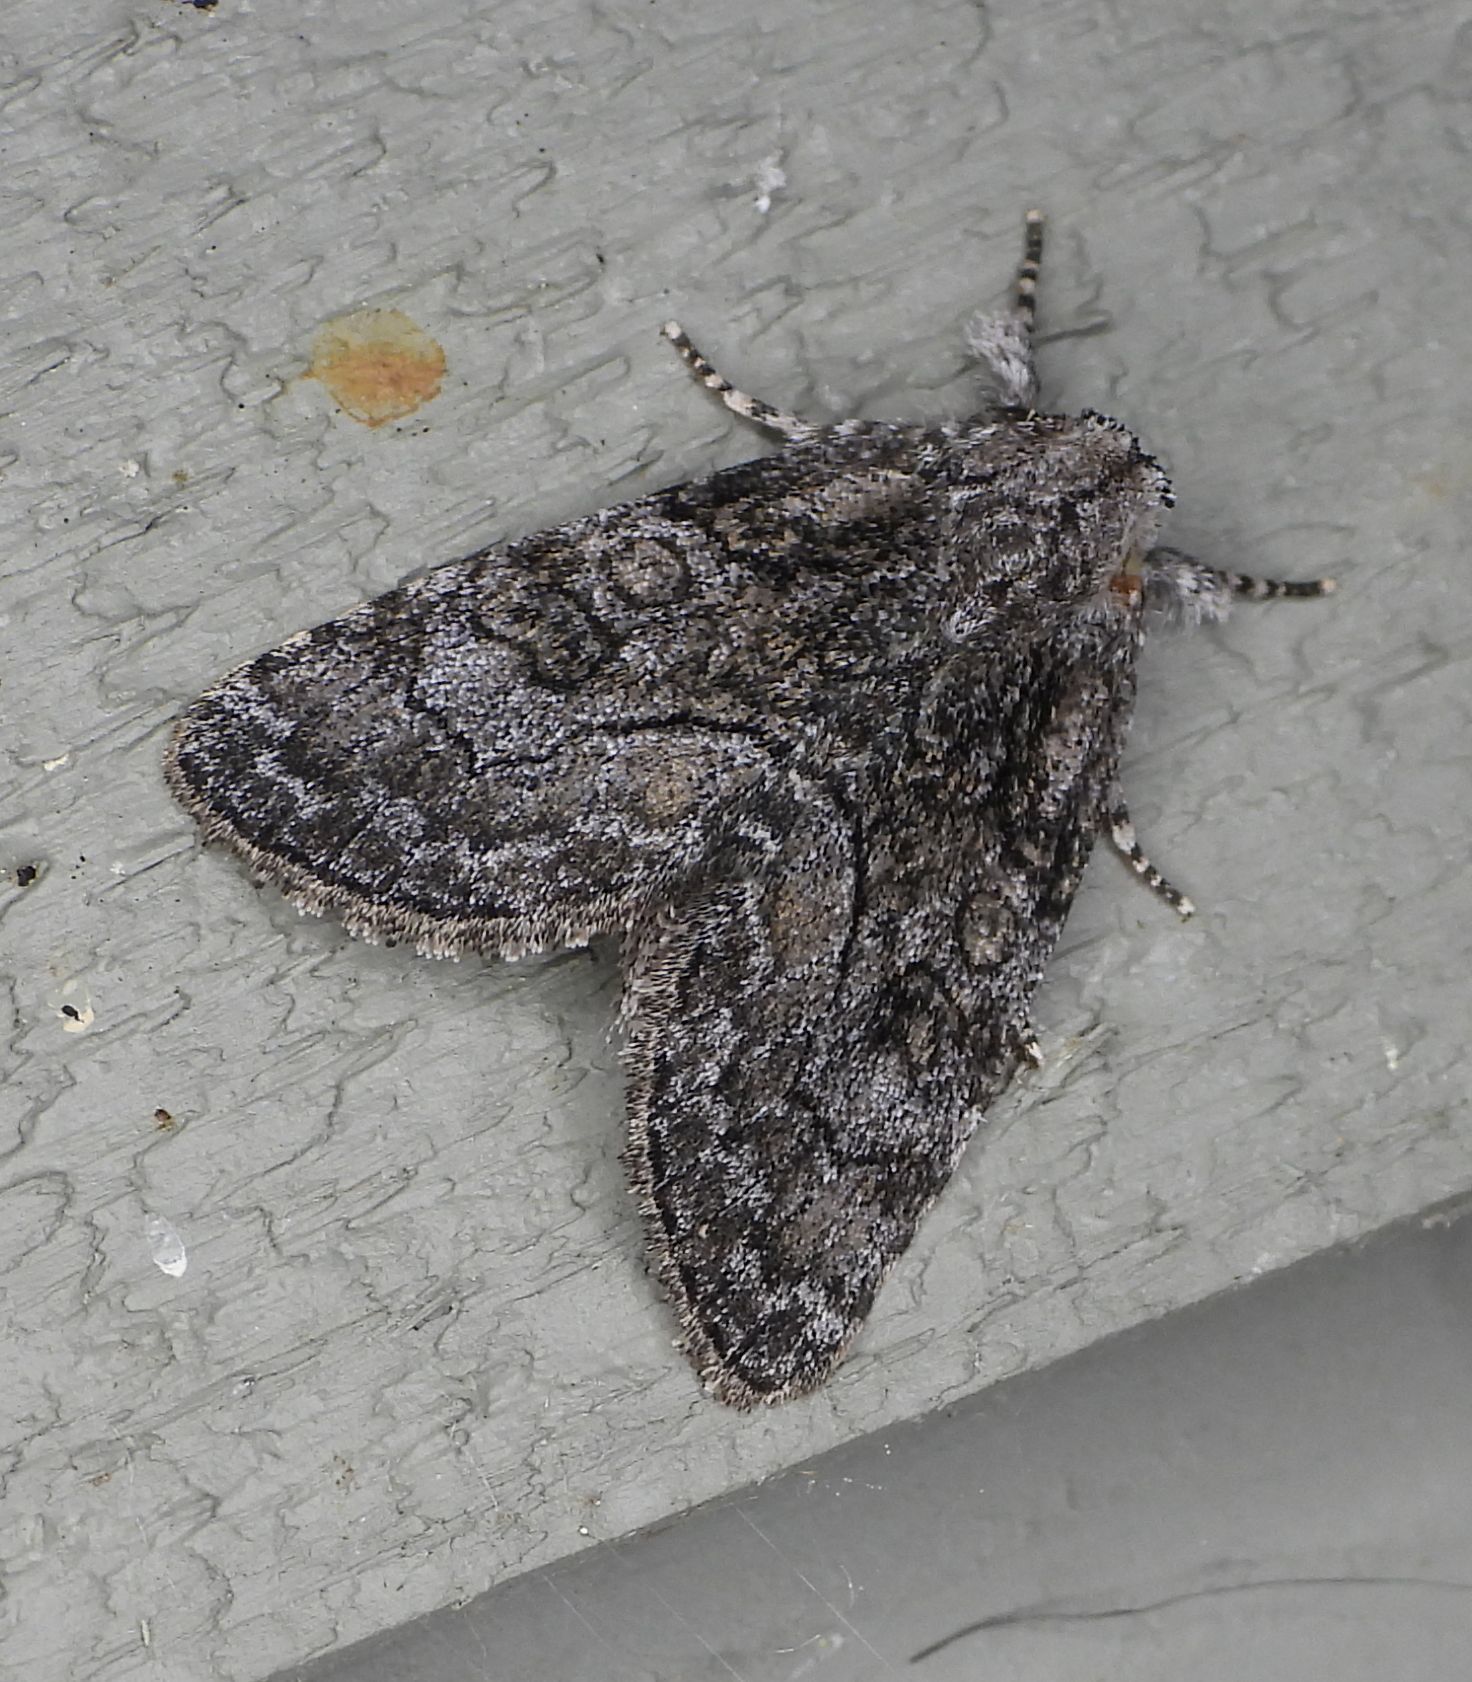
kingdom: Animalia
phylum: Arthropoda
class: Insecta
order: Lepidoptera
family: Noctuidae
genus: Raphia
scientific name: Raphia frater
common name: Brother
